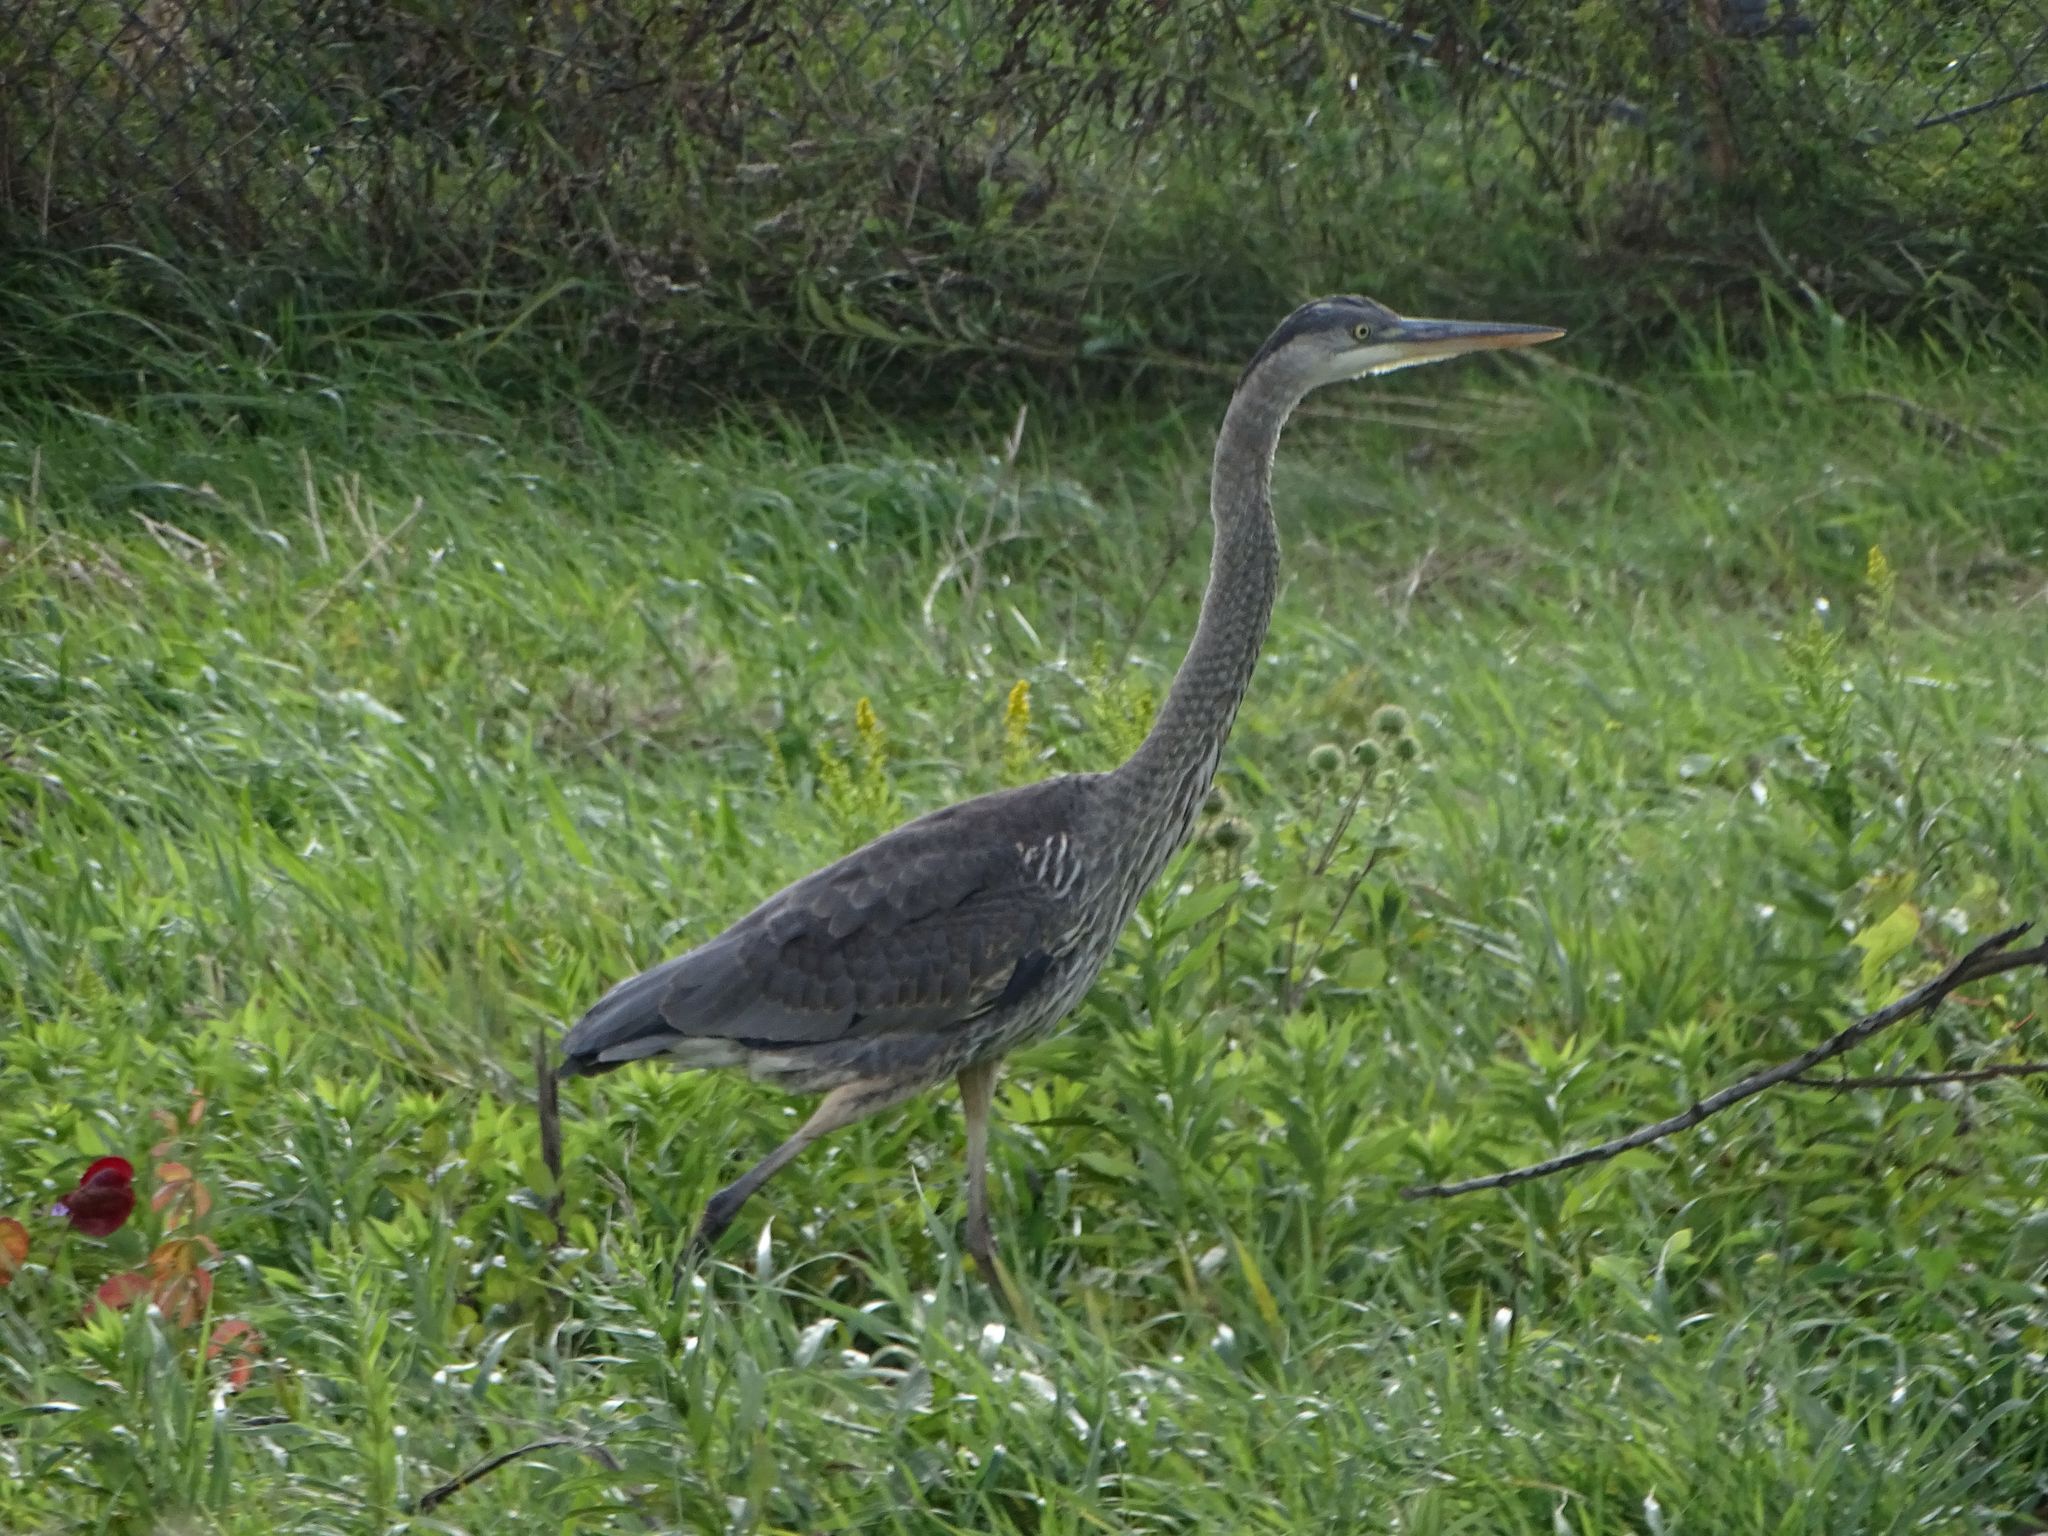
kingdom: Animalia
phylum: Chordata
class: Aves
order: Pelecaniformes
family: Ardeidae
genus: Ardea
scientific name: Ardea herodias
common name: Great blue heron
